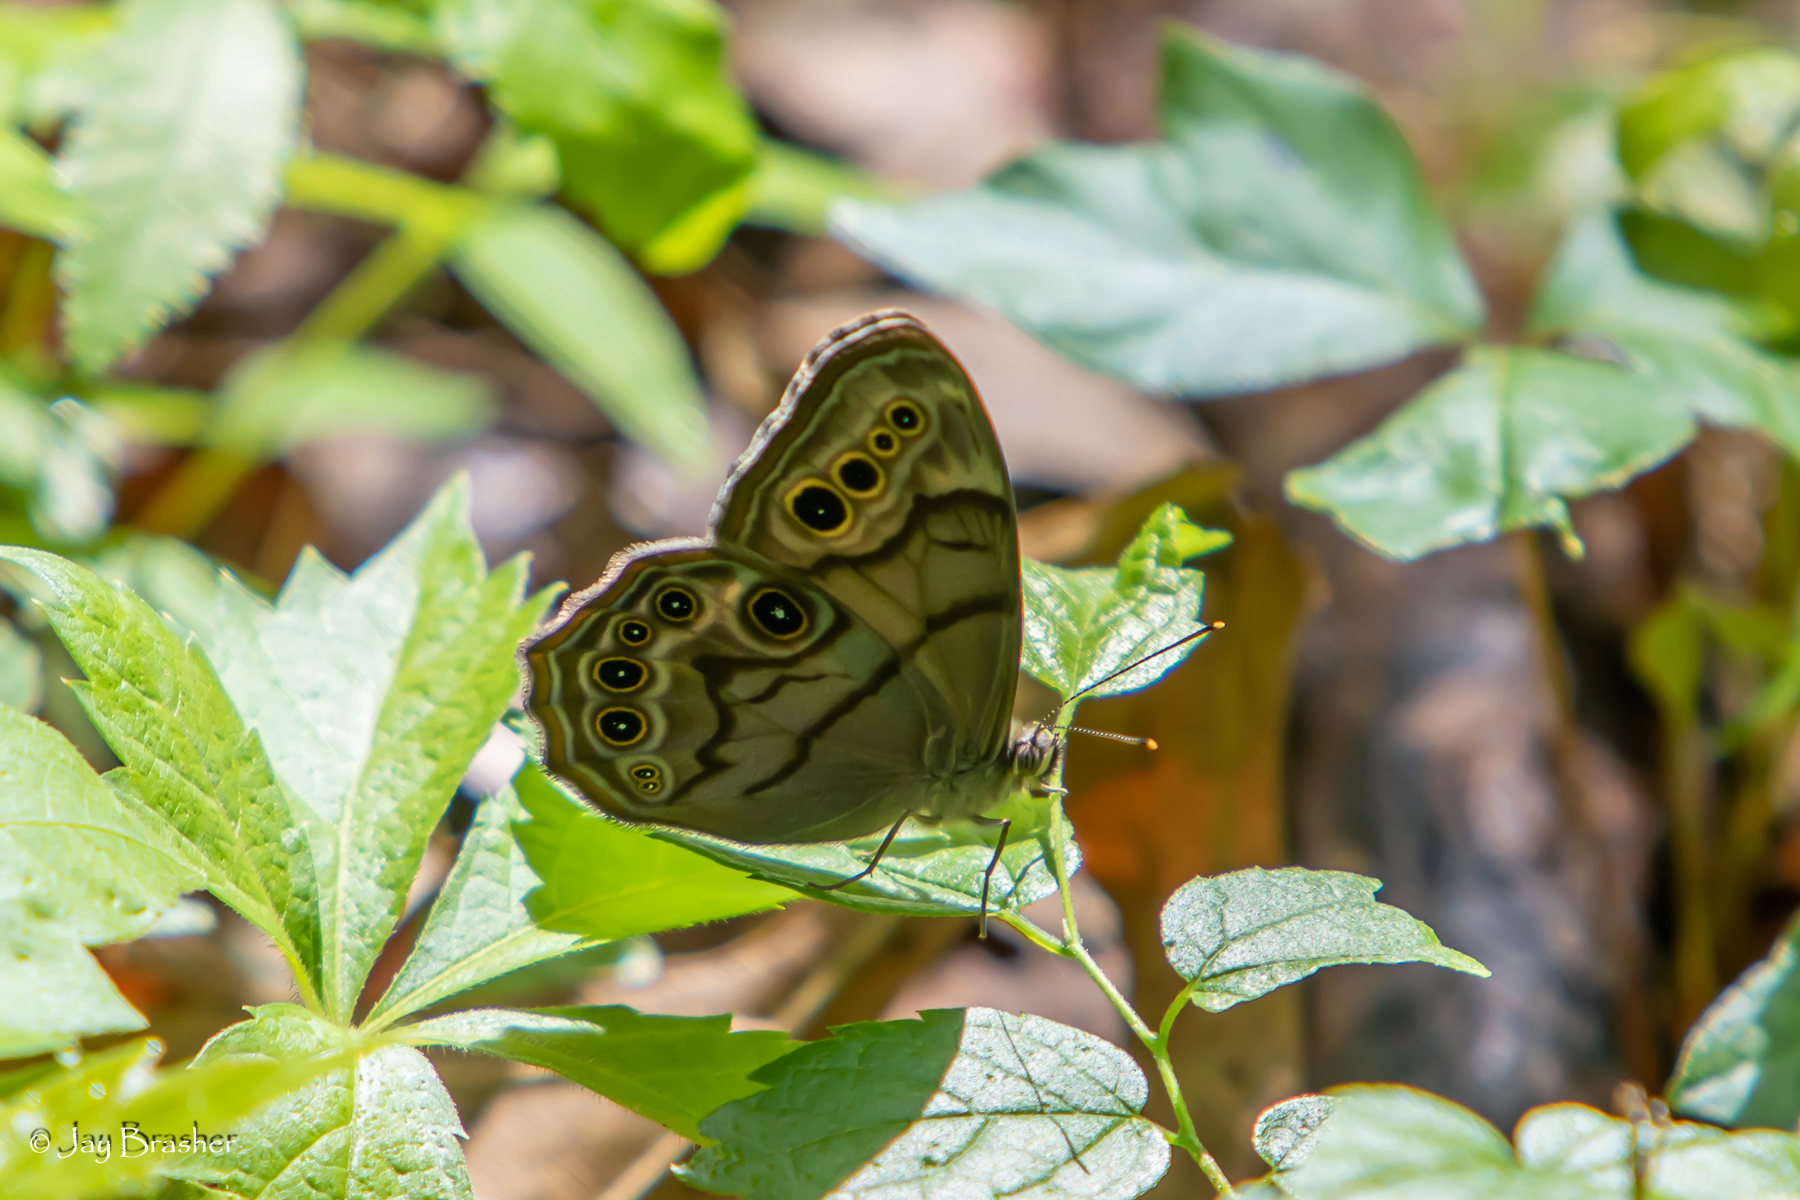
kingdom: Animalia
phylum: Arthropoda
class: Insecta
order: Lepidoptera
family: Nymphalidae
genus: Lethe
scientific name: Lethe anthedon
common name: Northern pearly-eye
